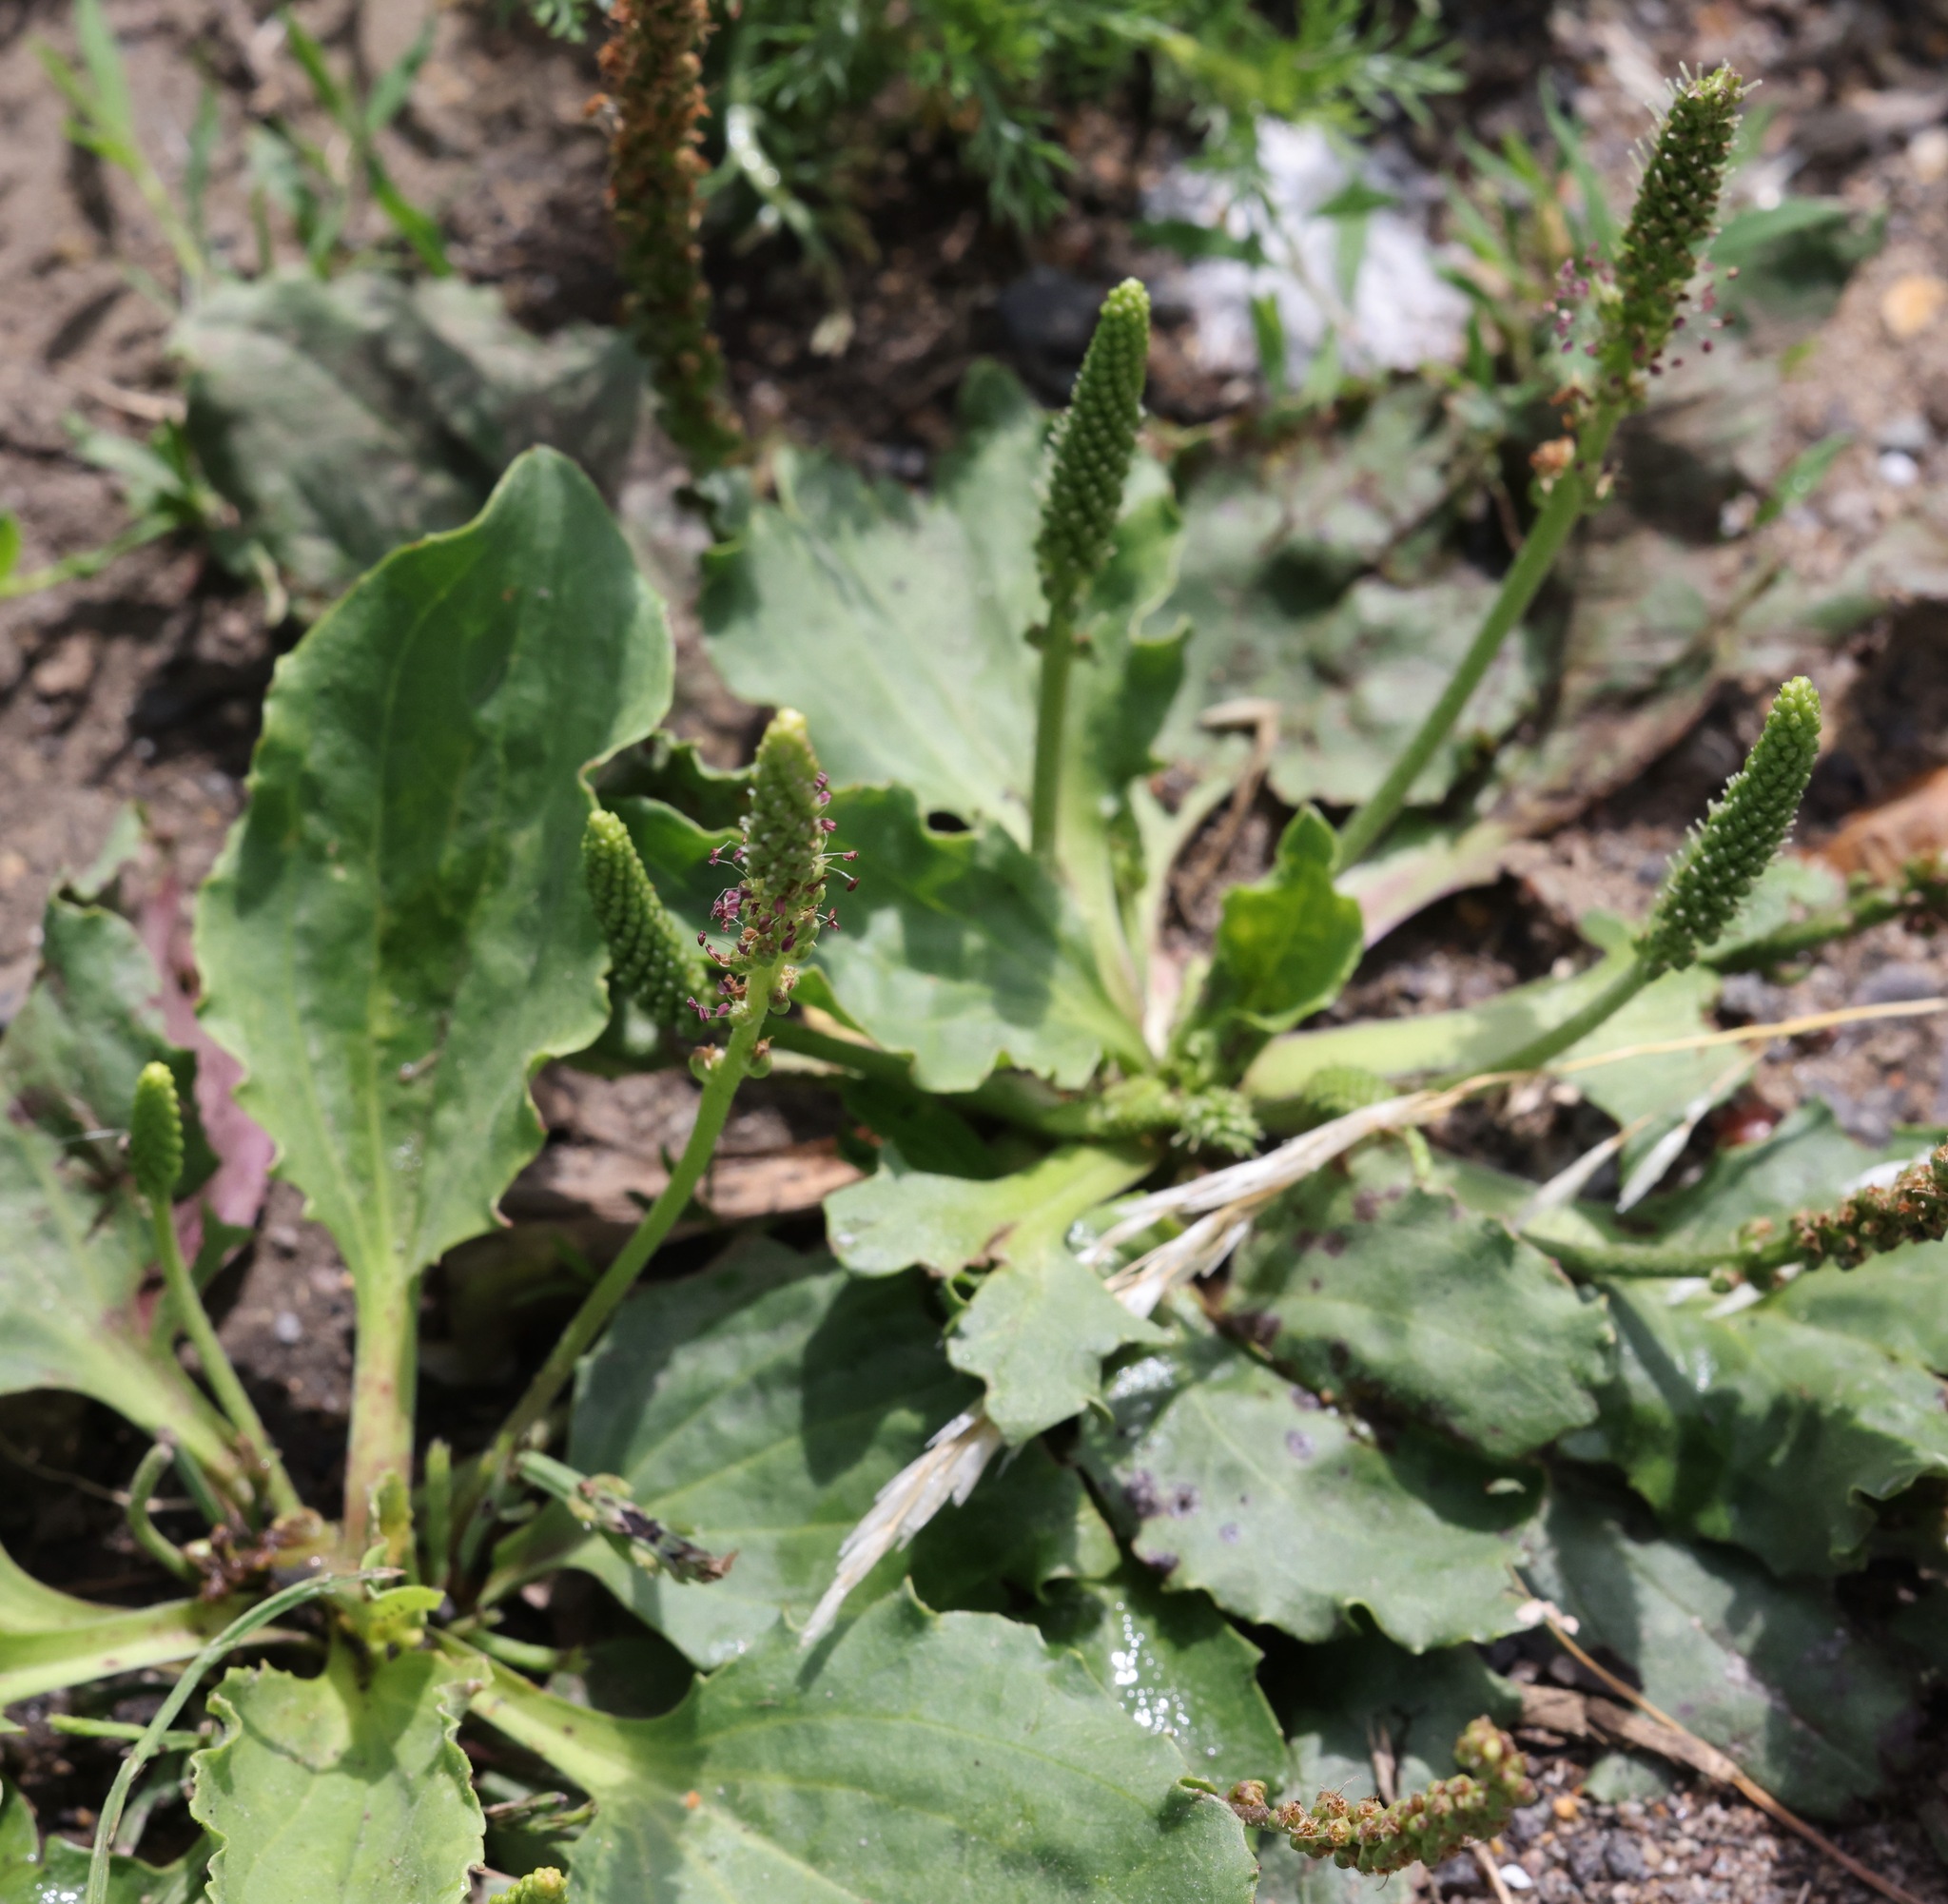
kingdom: Plantae
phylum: Tracheophyta
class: Magnoliopsida
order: Lamiales
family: Plantaginaceae
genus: Plantago
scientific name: Plantago major
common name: Common plantain
